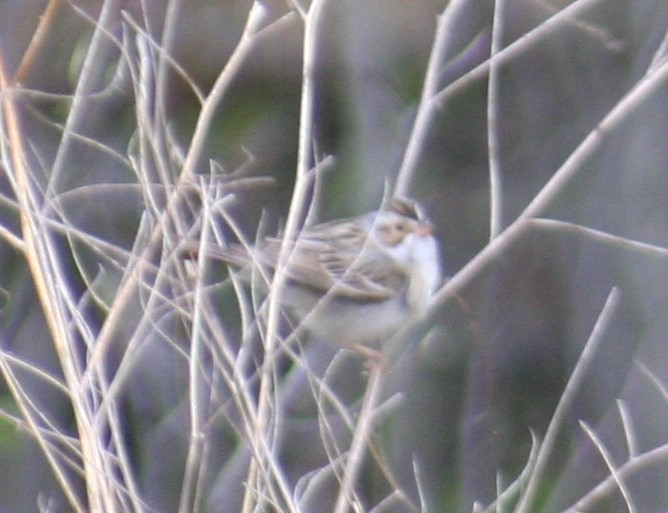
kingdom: Animalia
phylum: Chordata
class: Aves
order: Passeriformes
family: Passerellidae
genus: Spizella
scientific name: Spizella pallida
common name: Clay-colored sparrow
